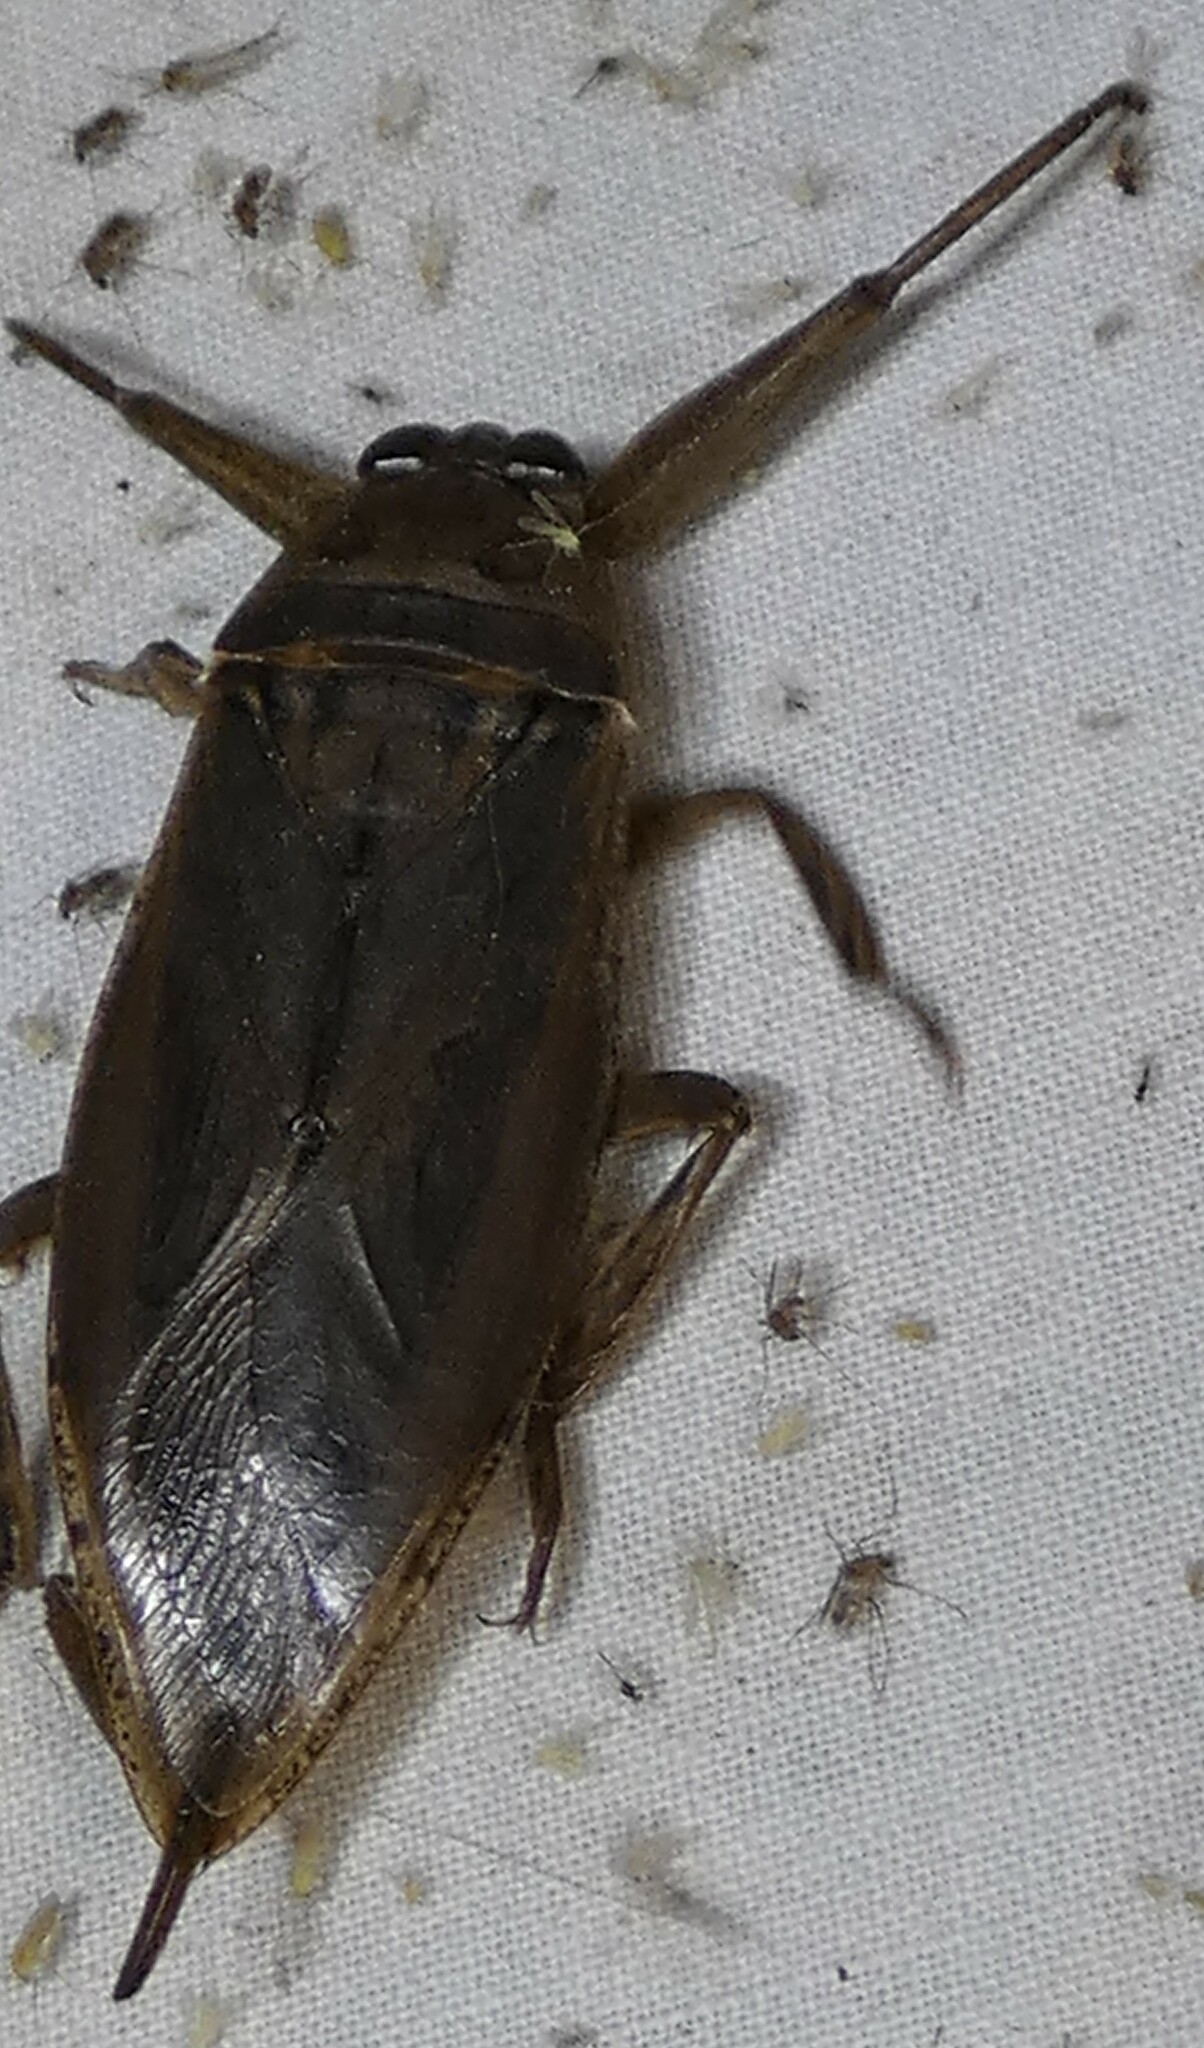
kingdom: Animalia
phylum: Arthropoda
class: Insecta
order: Hemiptera
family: Belostomatidae
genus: Lethocerus
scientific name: Lethocerus uhleri
